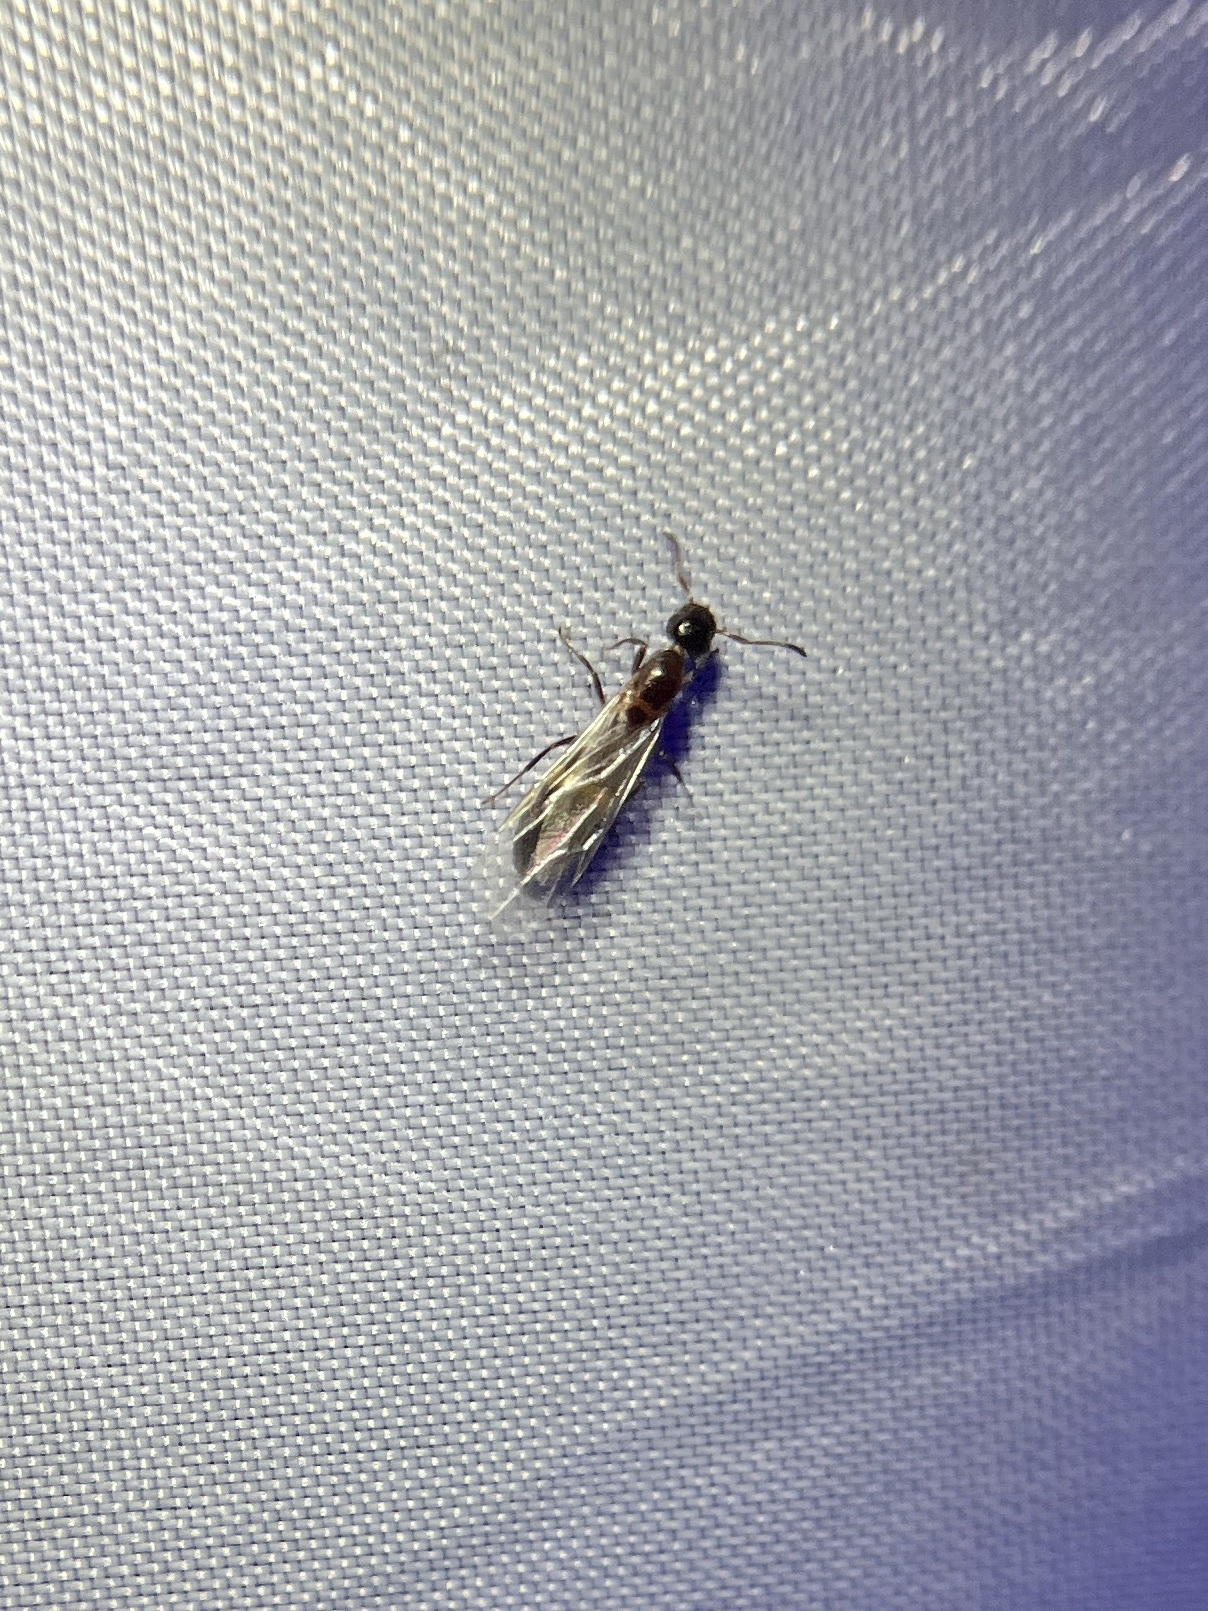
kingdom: Animalia
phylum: Arthropoda
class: Insecta
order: Hymenoptera
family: Formicidae
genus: Colobopsis
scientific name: Colobopsis
